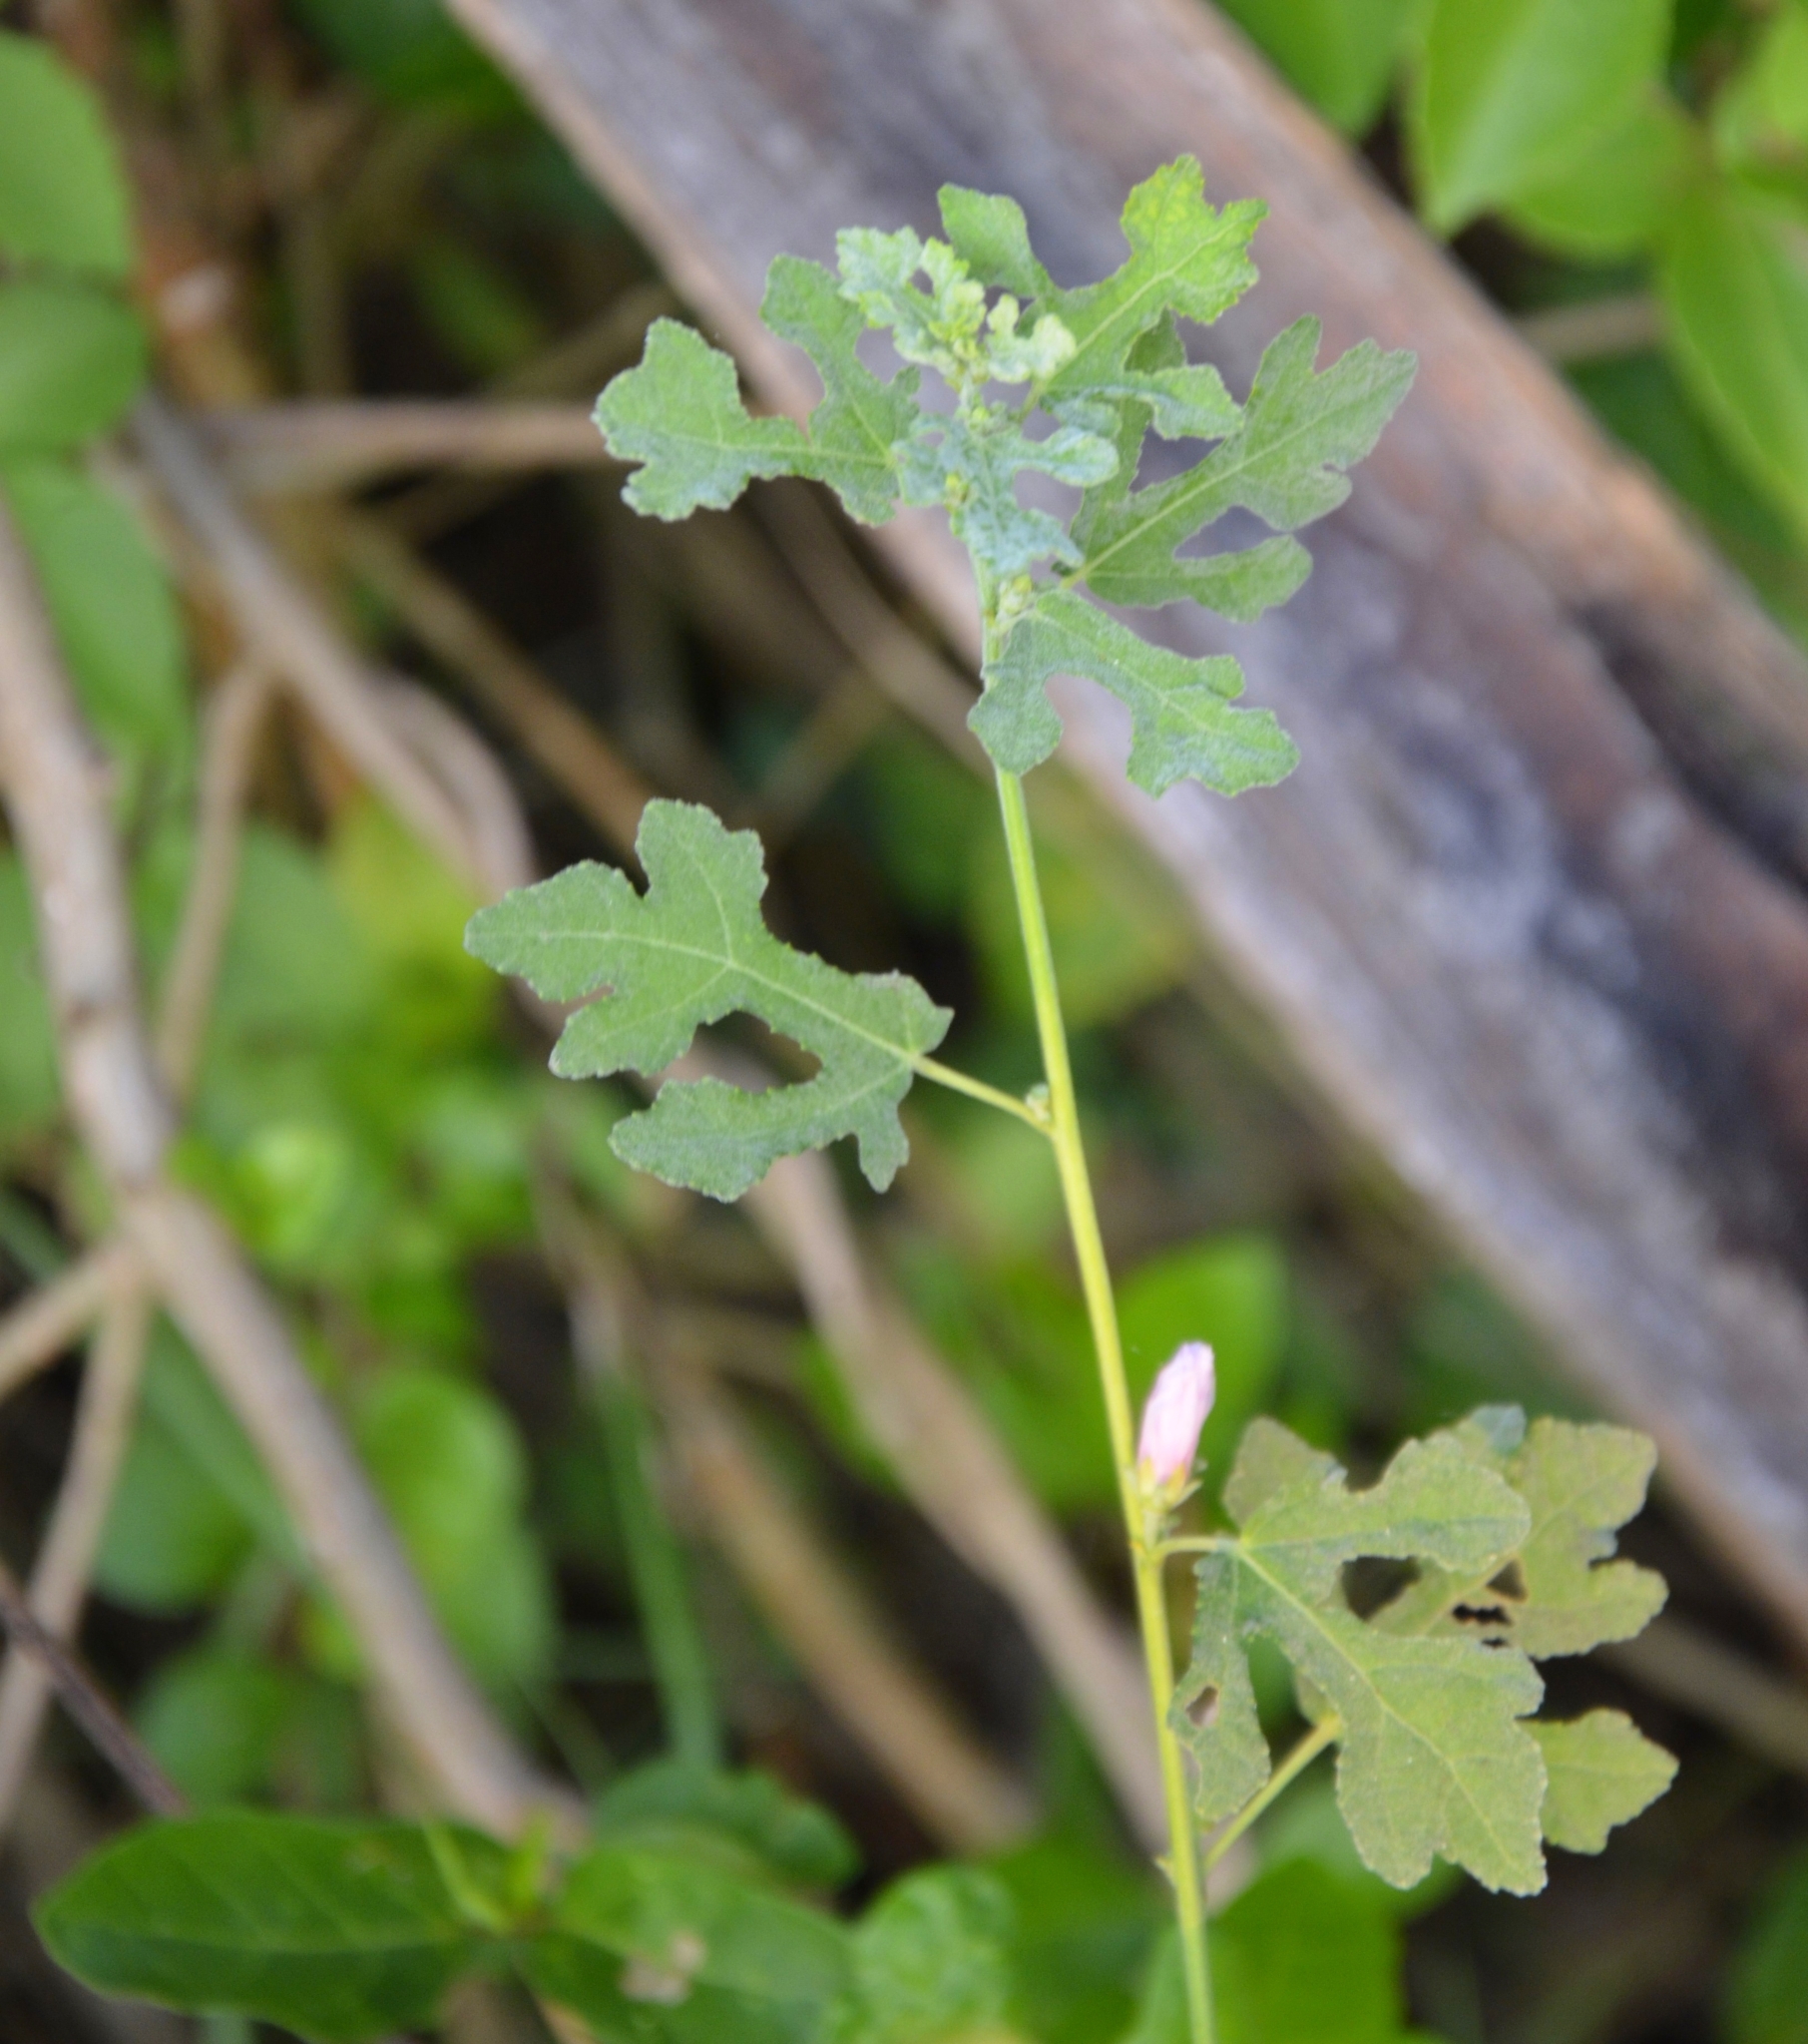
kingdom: Plantae
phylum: Tracheophyta
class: Magnoliopsida
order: Malvales
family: Malvaceae
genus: Urena
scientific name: Urena procumbens
